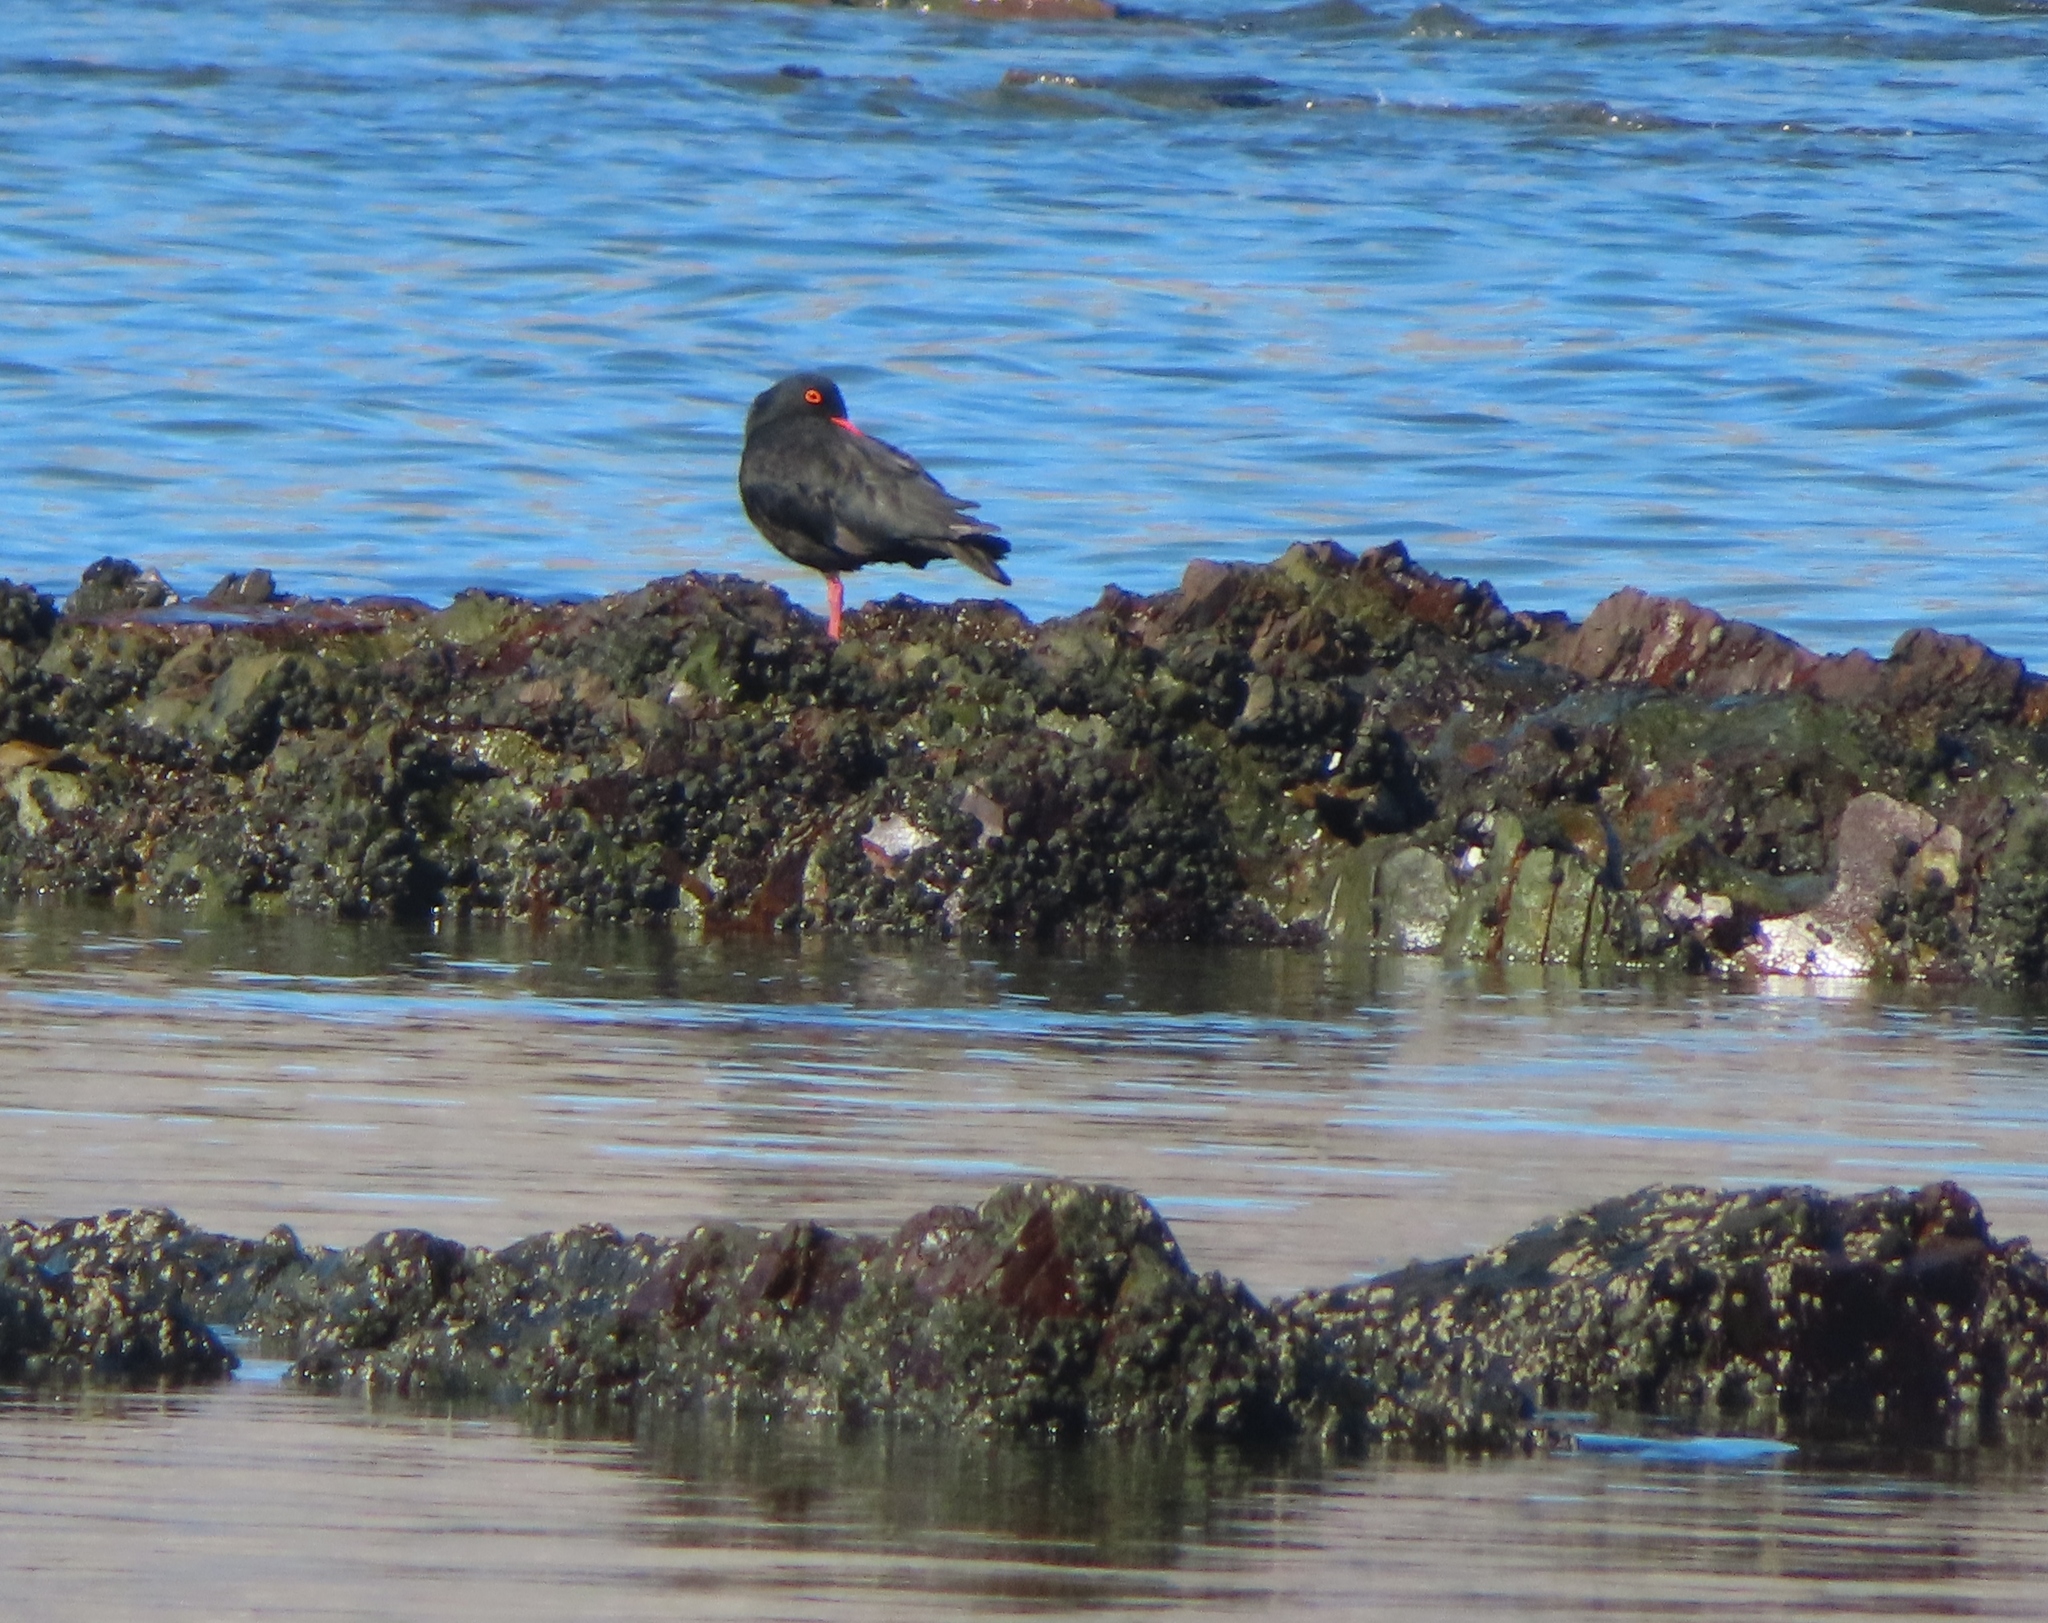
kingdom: Animalia
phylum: Chordata
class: Aves
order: Charadriiformes
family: Haematopodidae
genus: Haematopus
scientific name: Haematopus moquini
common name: African oystercatcher
